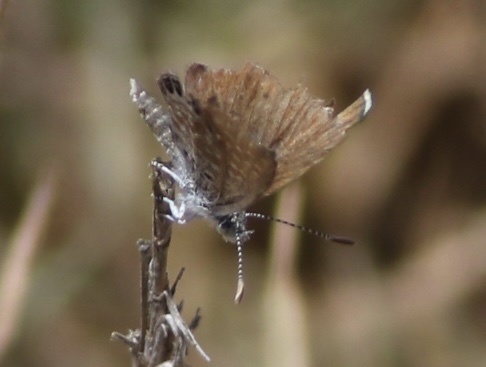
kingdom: Animalia
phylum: Arthropoda
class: Insecta
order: Lepidoptera
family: Lycaenidae
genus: Brephidium
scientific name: Brephidium exilis
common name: Pygmy blue
